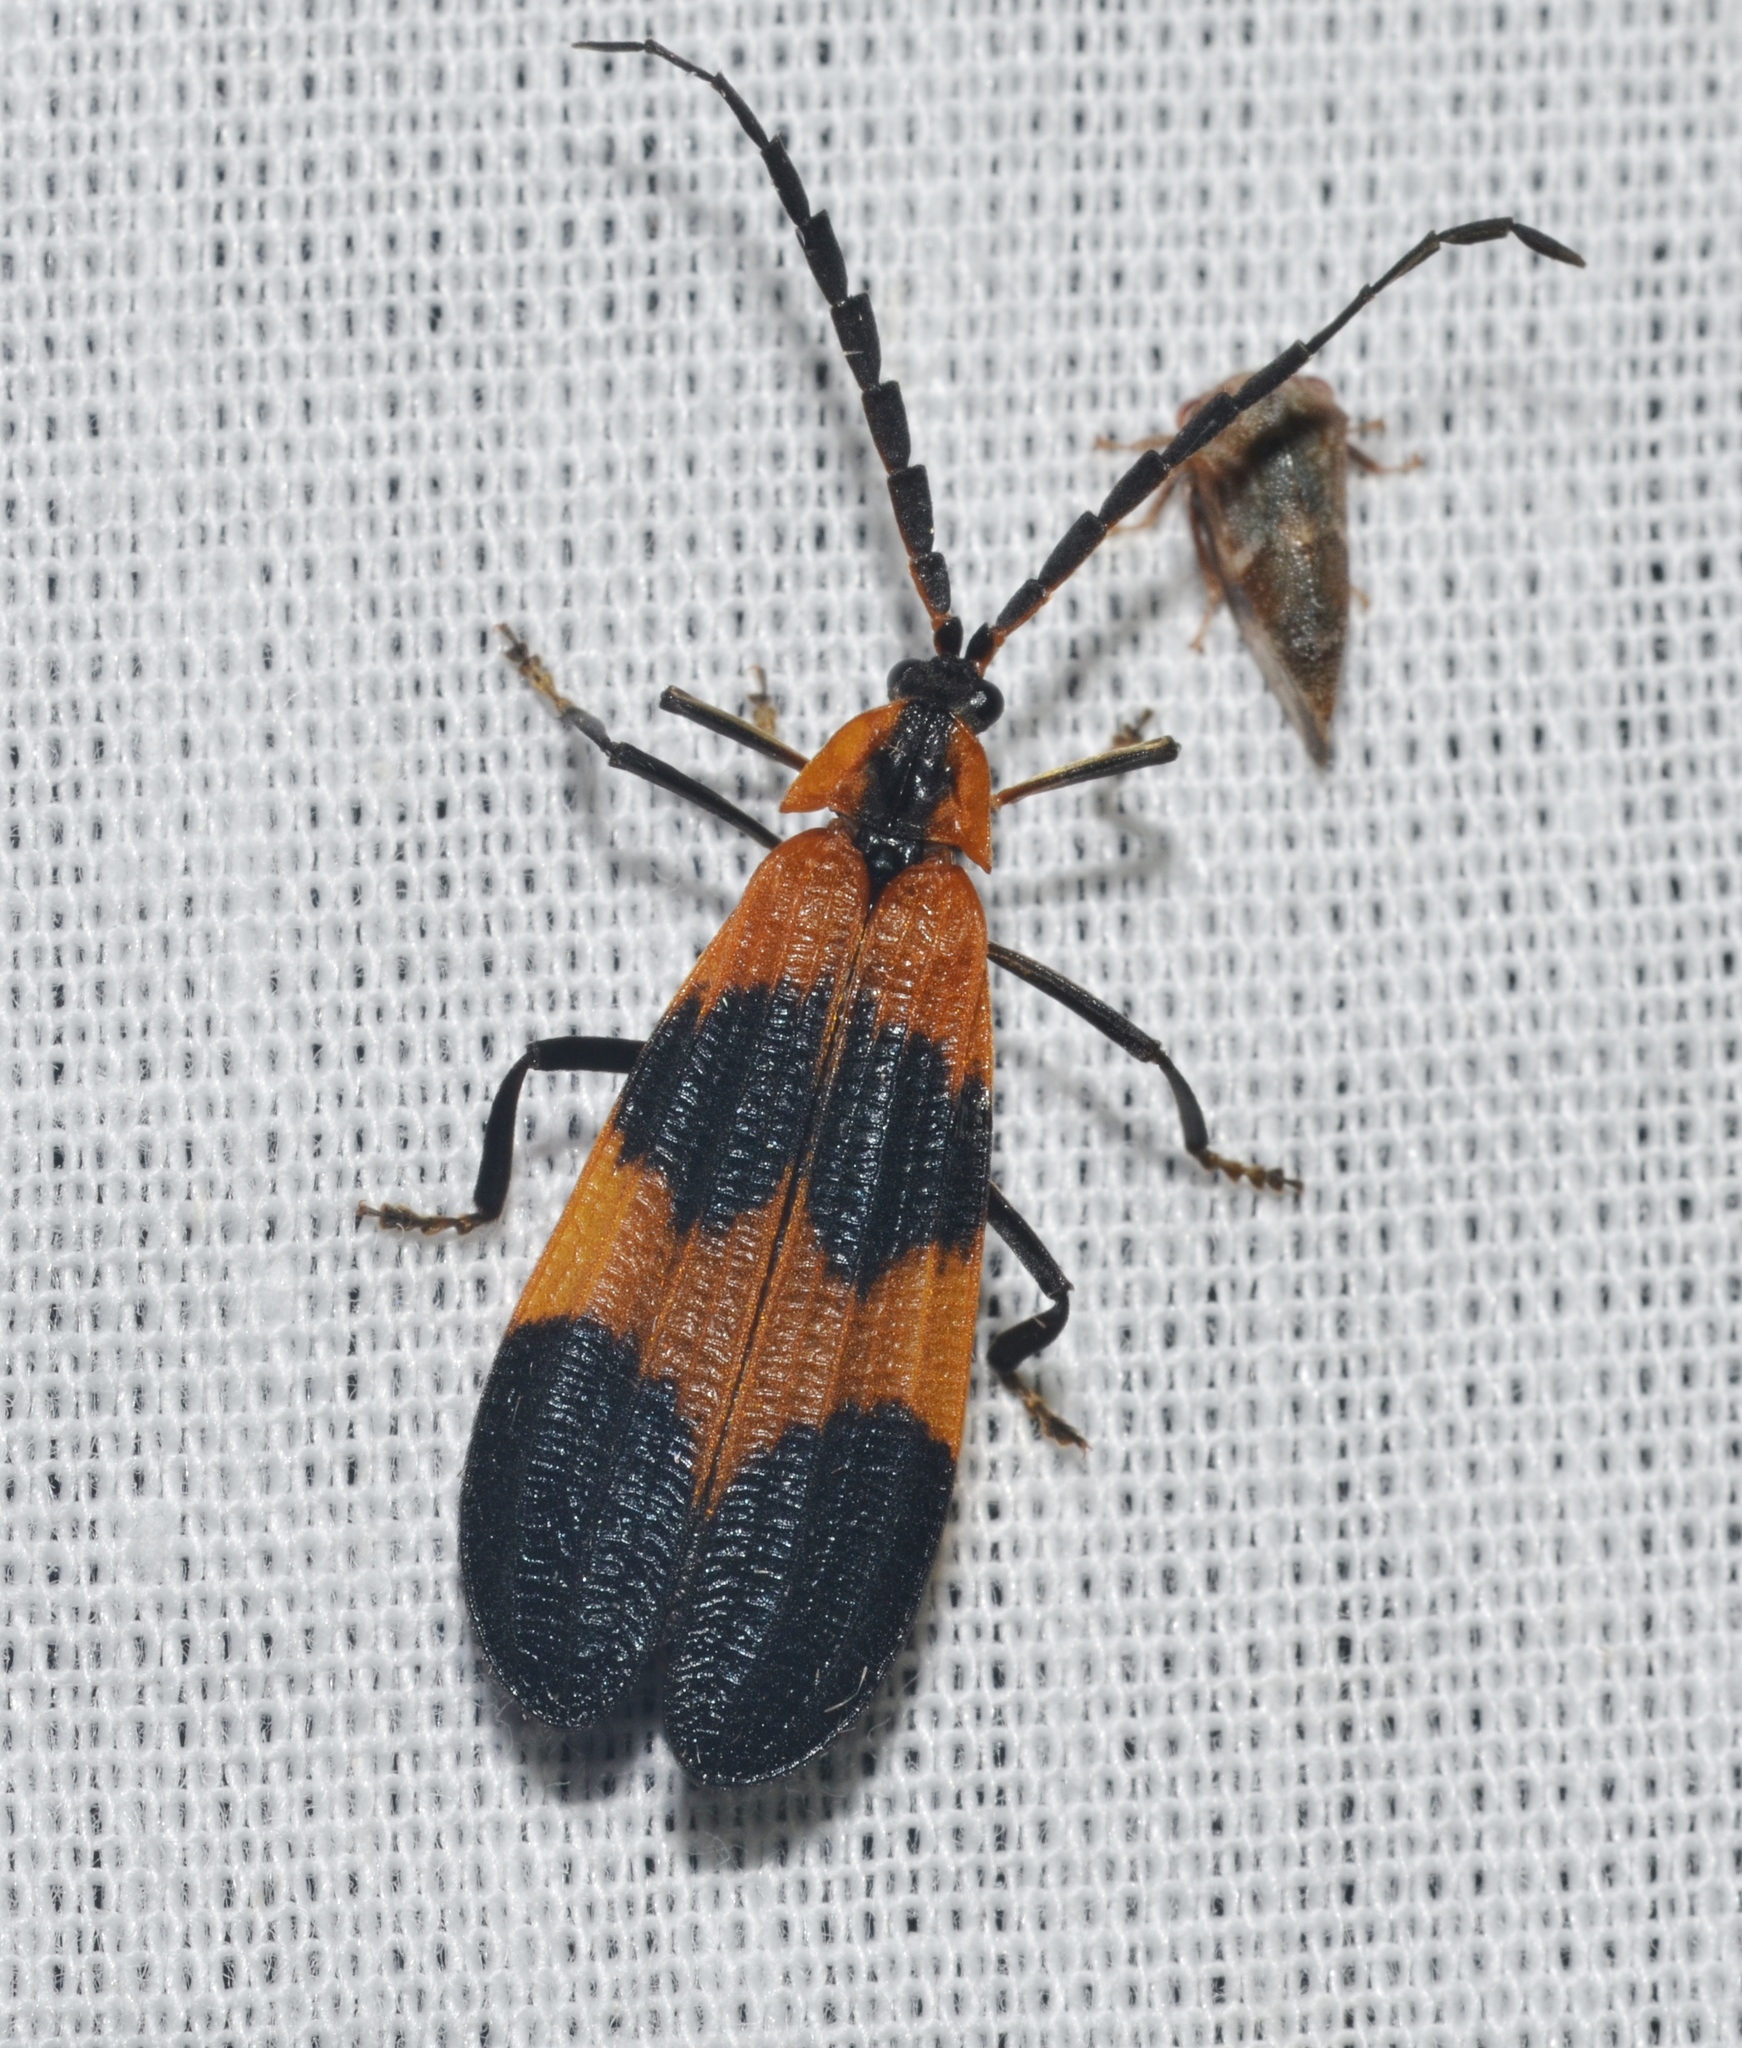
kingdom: Animalia
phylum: Arthropoda
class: Insecta
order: Coleoptera
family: Lycidae
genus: Calopteron
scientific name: Calopteron reticulatum
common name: Banded net-winged beetle
